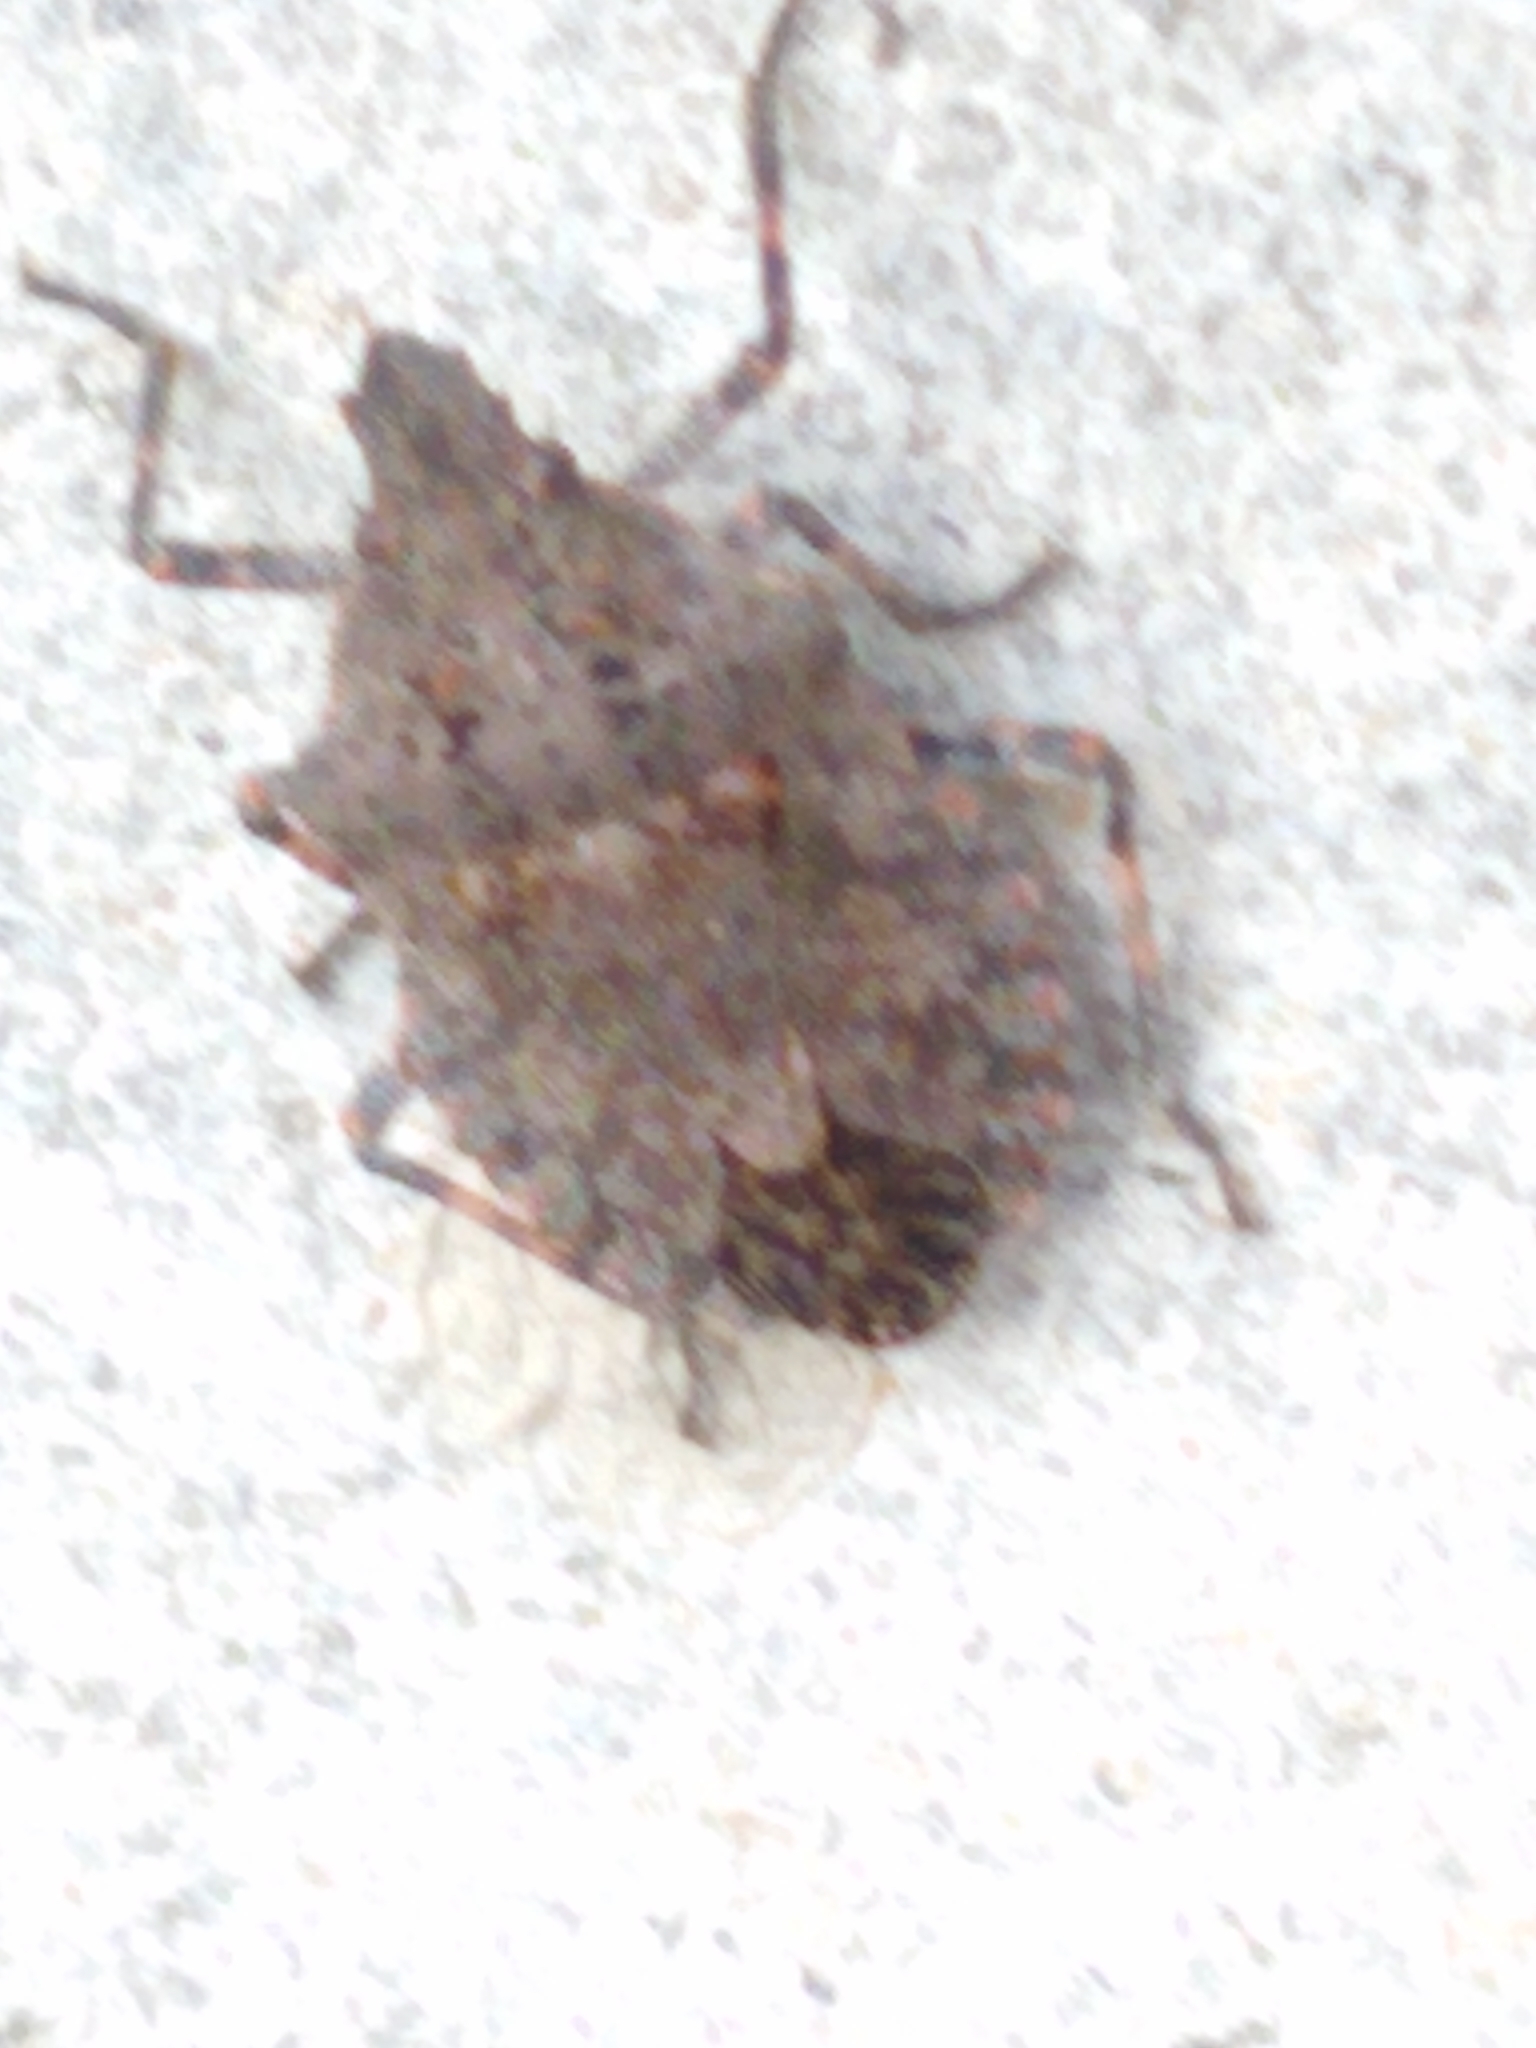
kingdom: Animalia
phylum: Arthropoda
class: Insecta
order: Hemiptera
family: Pentatomidae
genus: Brochymena
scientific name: Brochymena quadripustulata
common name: Four-humped stink bug
